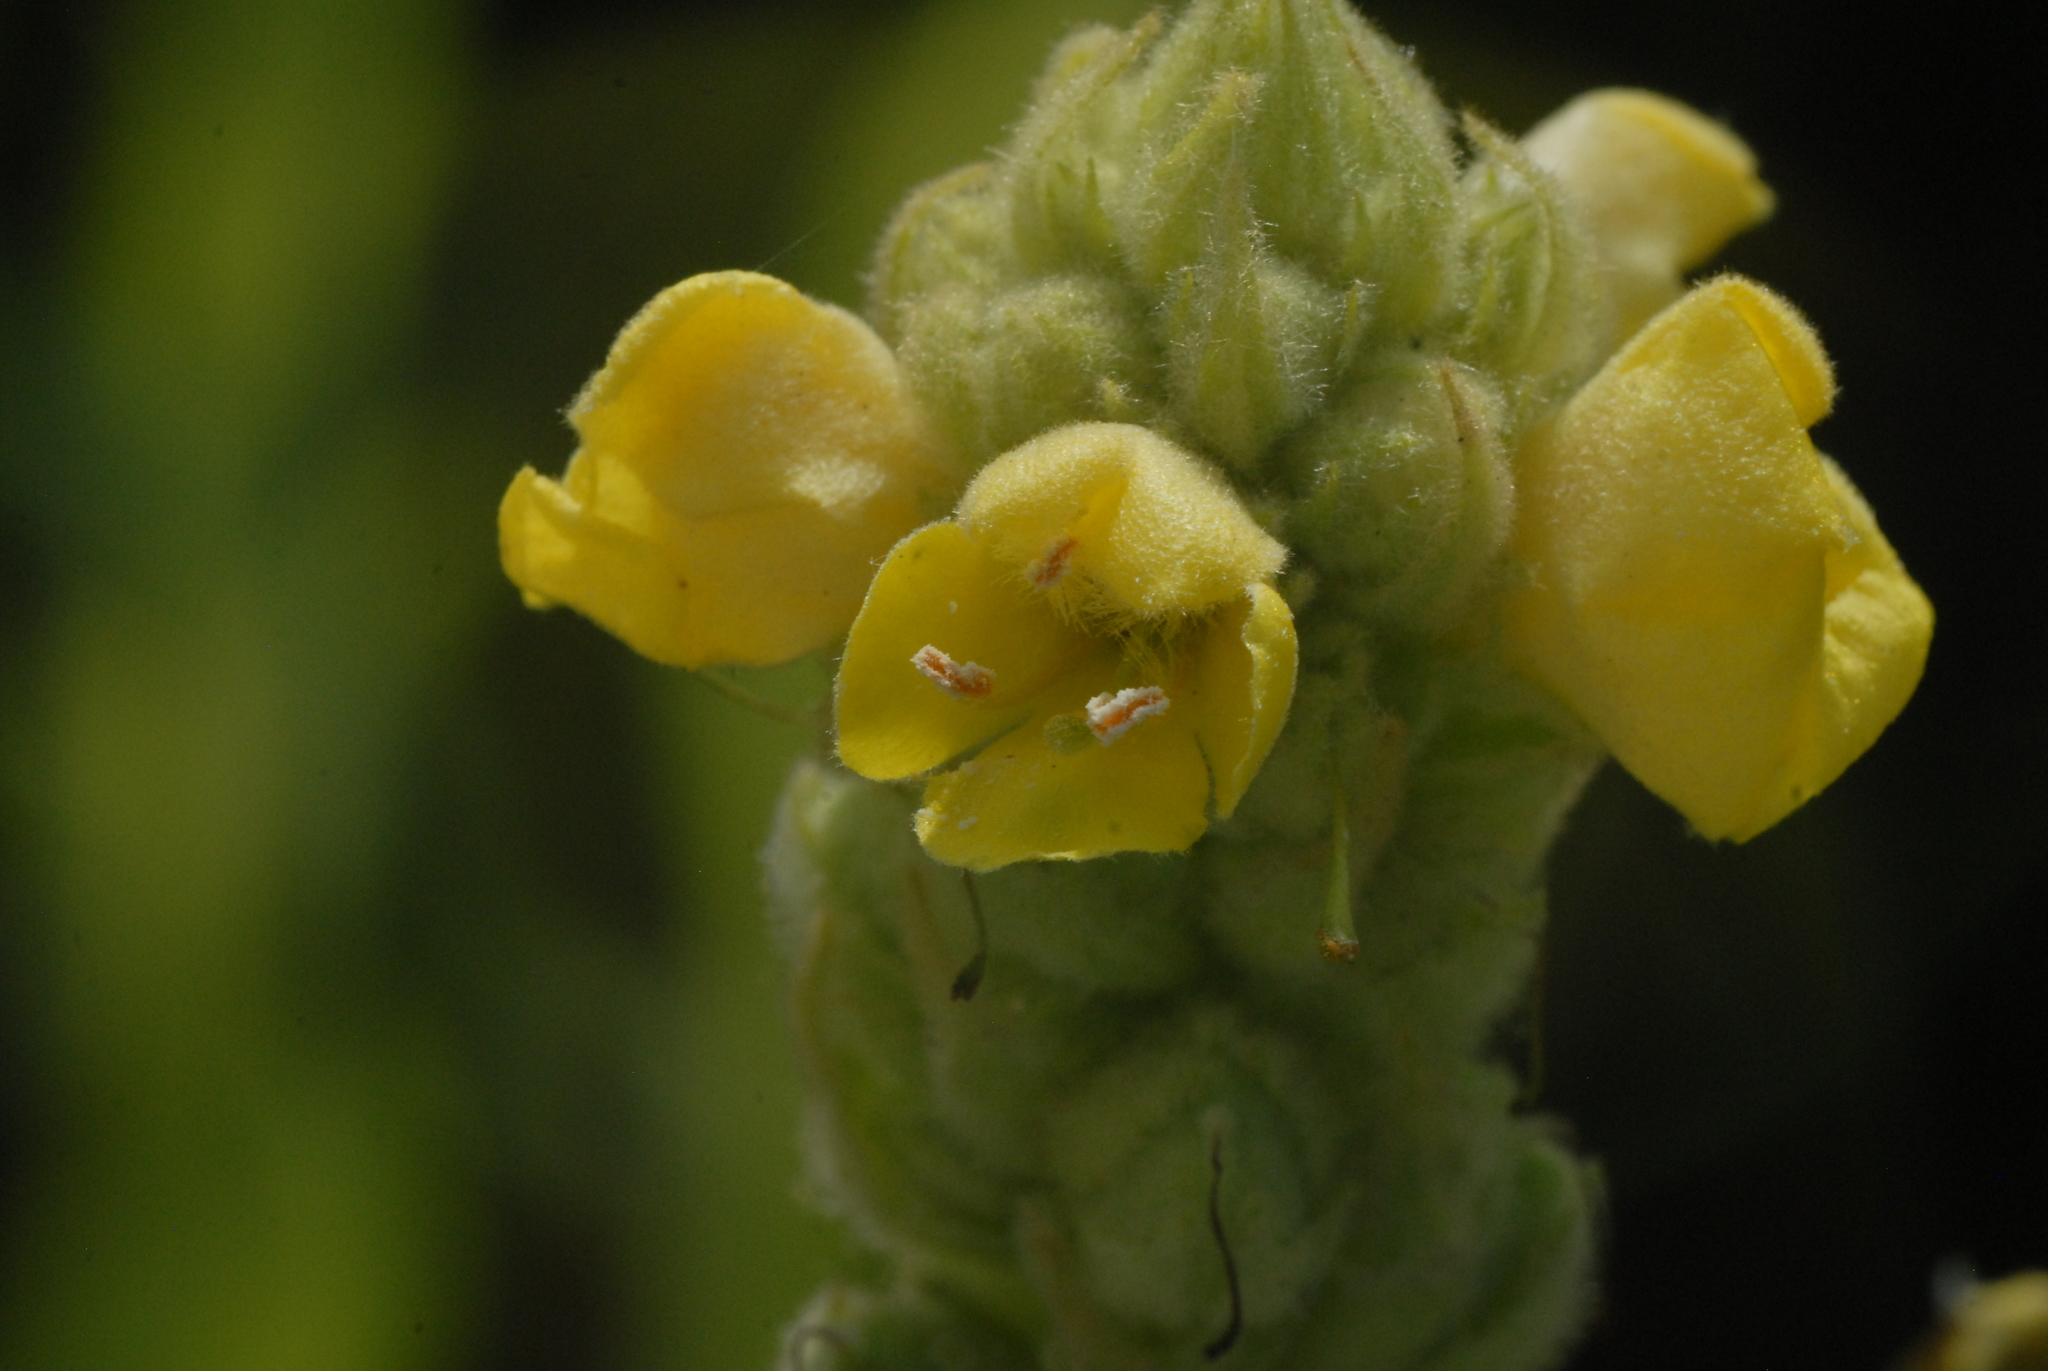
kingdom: Plantae
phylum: Tracheophyta
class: Magnoliopsida
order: Lamiales
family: Scrophulariaceae
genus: Verbascum
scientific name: Verbascum thapsus
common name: Common mullein
